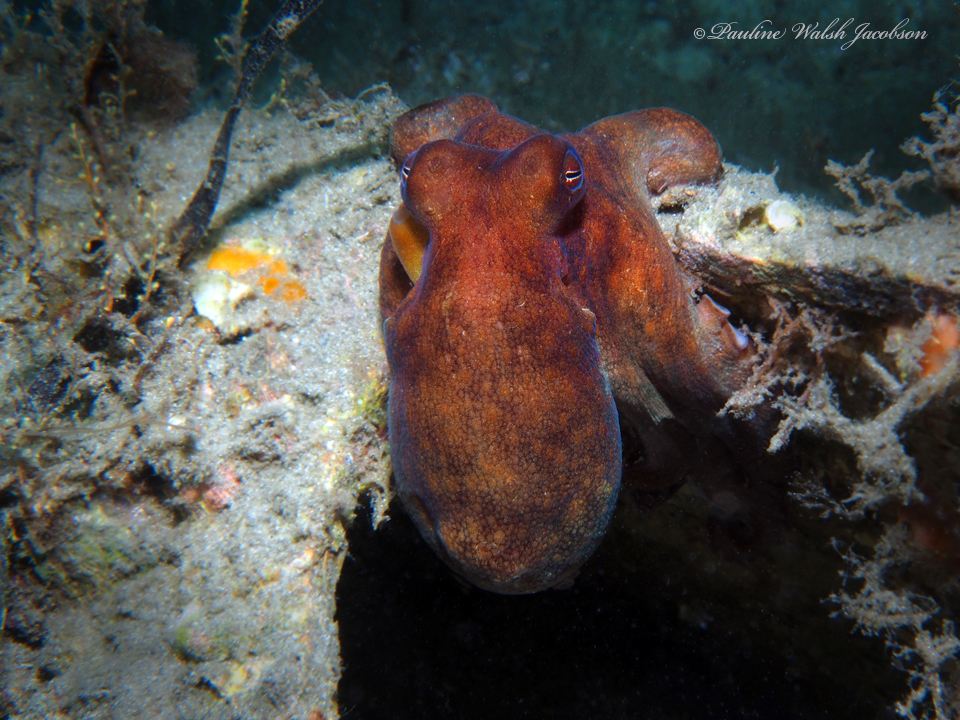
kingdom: Animalia
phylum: Mollusca
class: Cephalopoda
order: Octopoda
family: Octopodidae
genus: Octopus
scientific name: Octopus americanus
